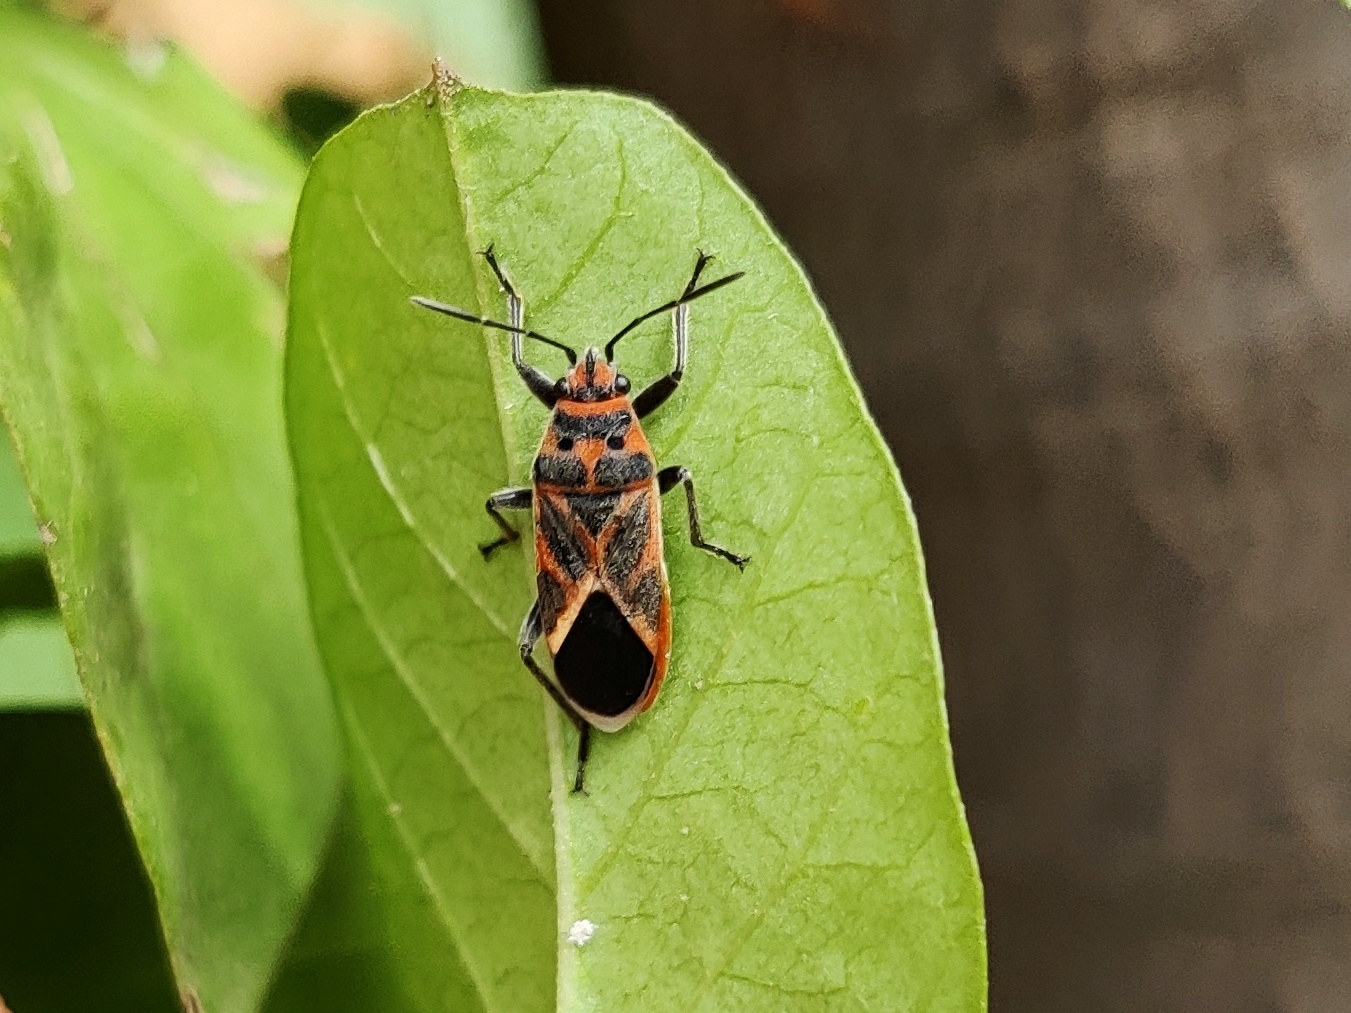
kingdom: Animalia
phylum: Arthropoda
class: Insecta
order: Hemiptera
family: Lygaeidae
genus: Graptostethus
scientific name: Graptostethus servus
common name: Lygaeid bug
